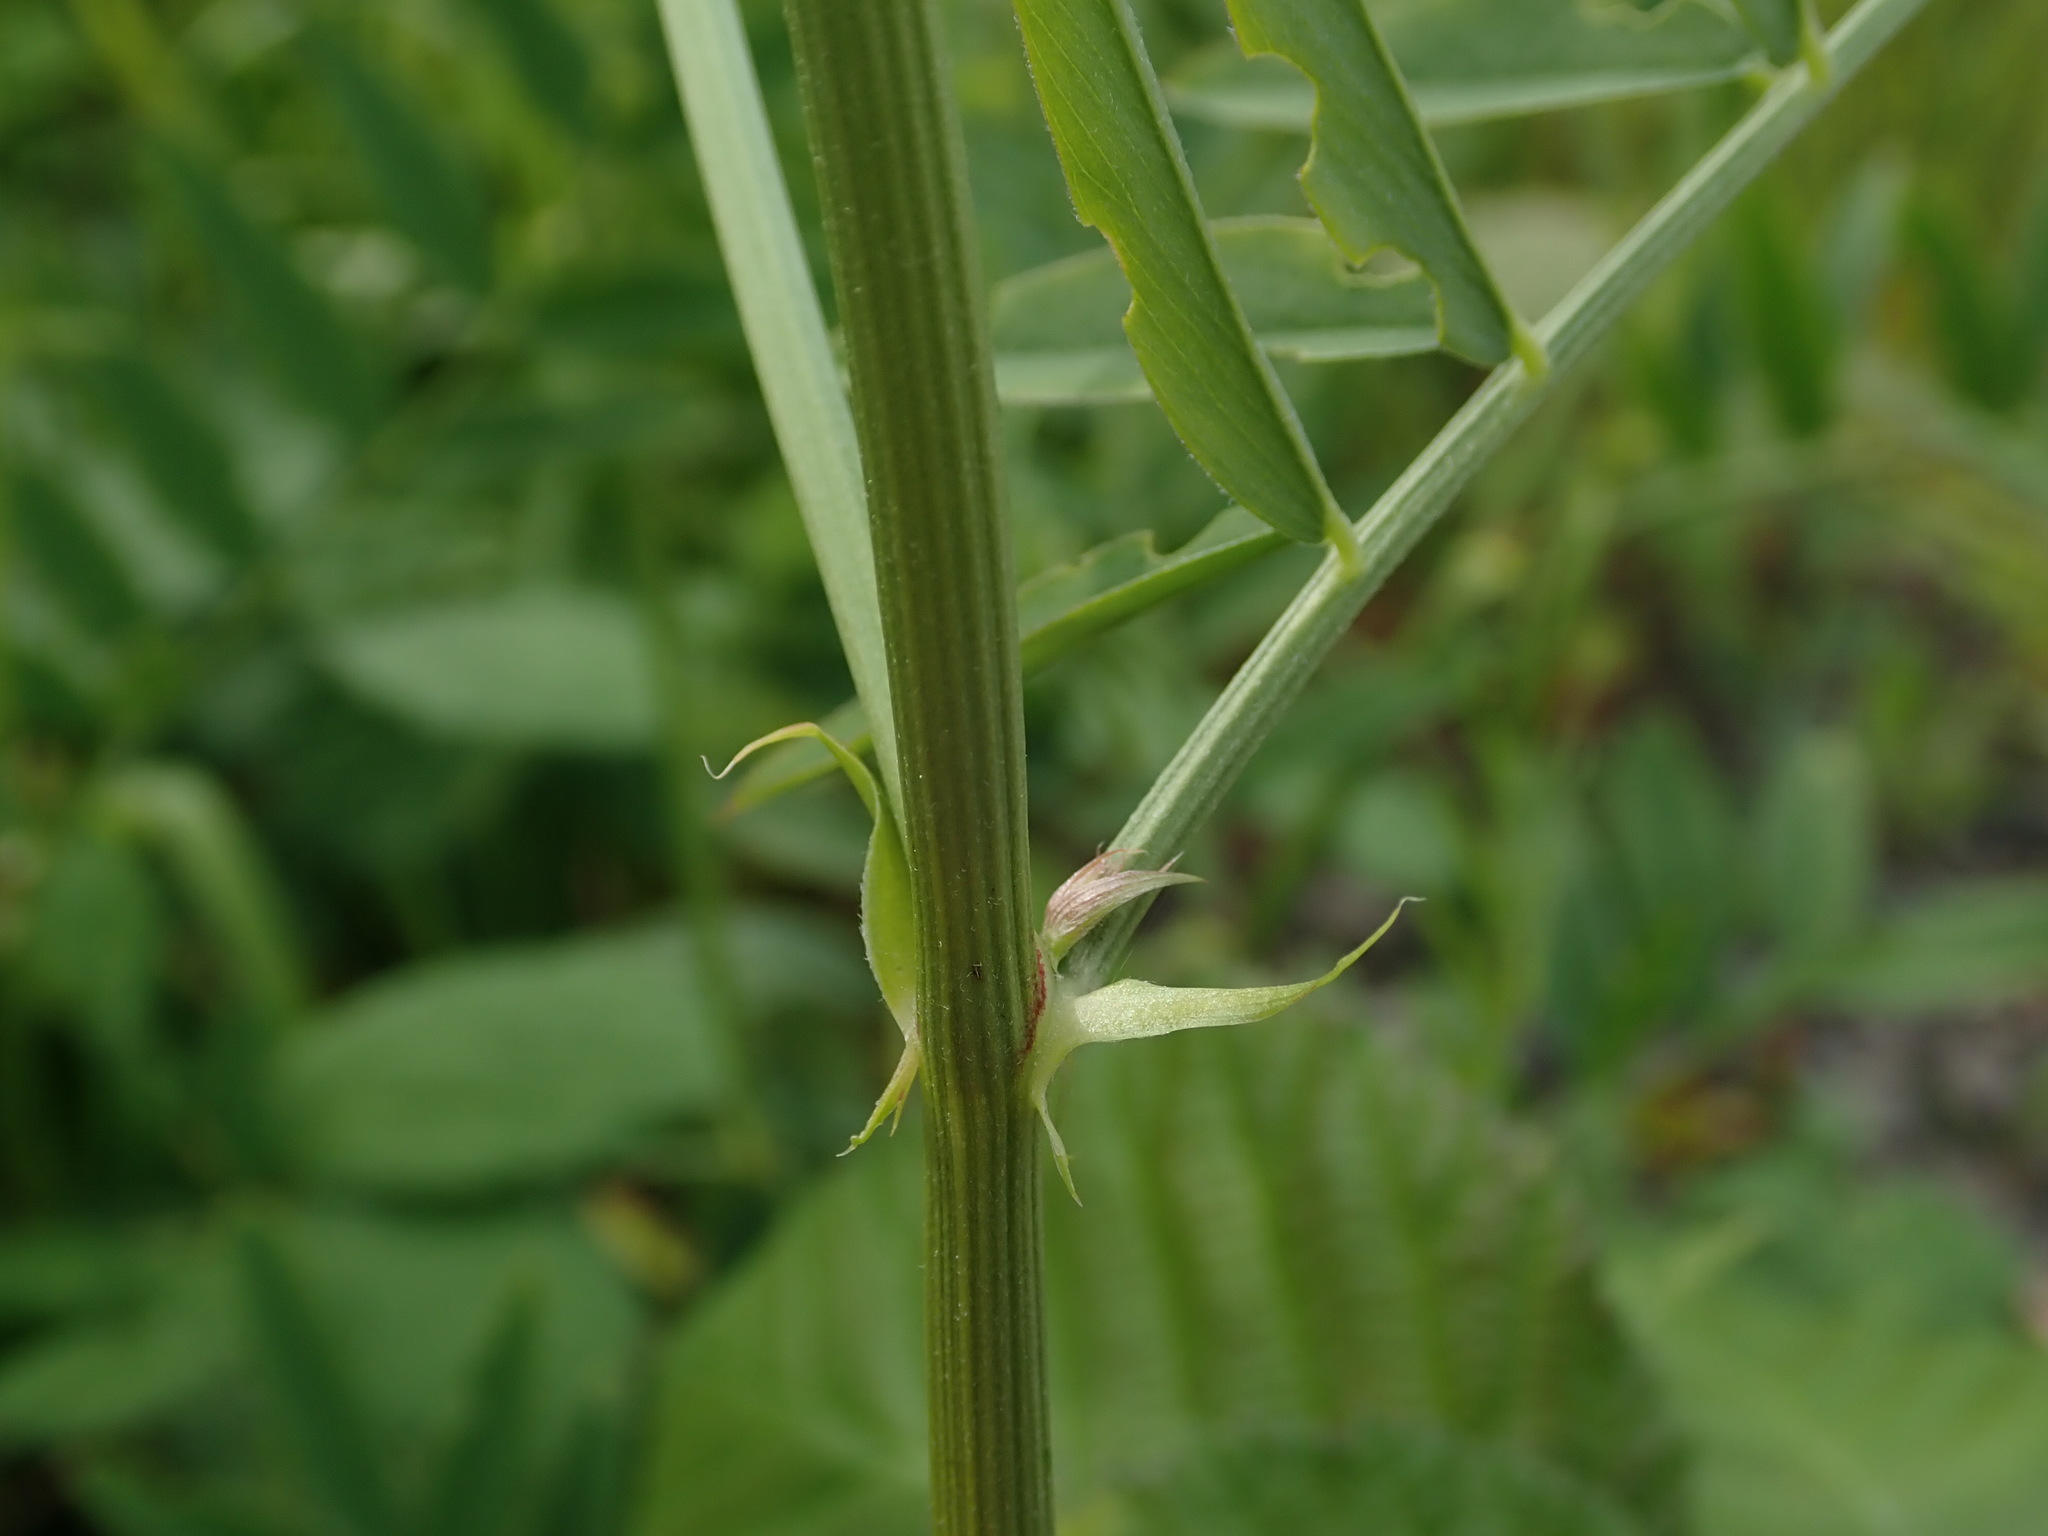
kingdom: Plantae
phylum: Tracheophyta
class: Magnoliopsida
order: Fabales
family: Fabaceae
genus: Galega
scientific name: Galega officinalis
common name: Goat's-rue
